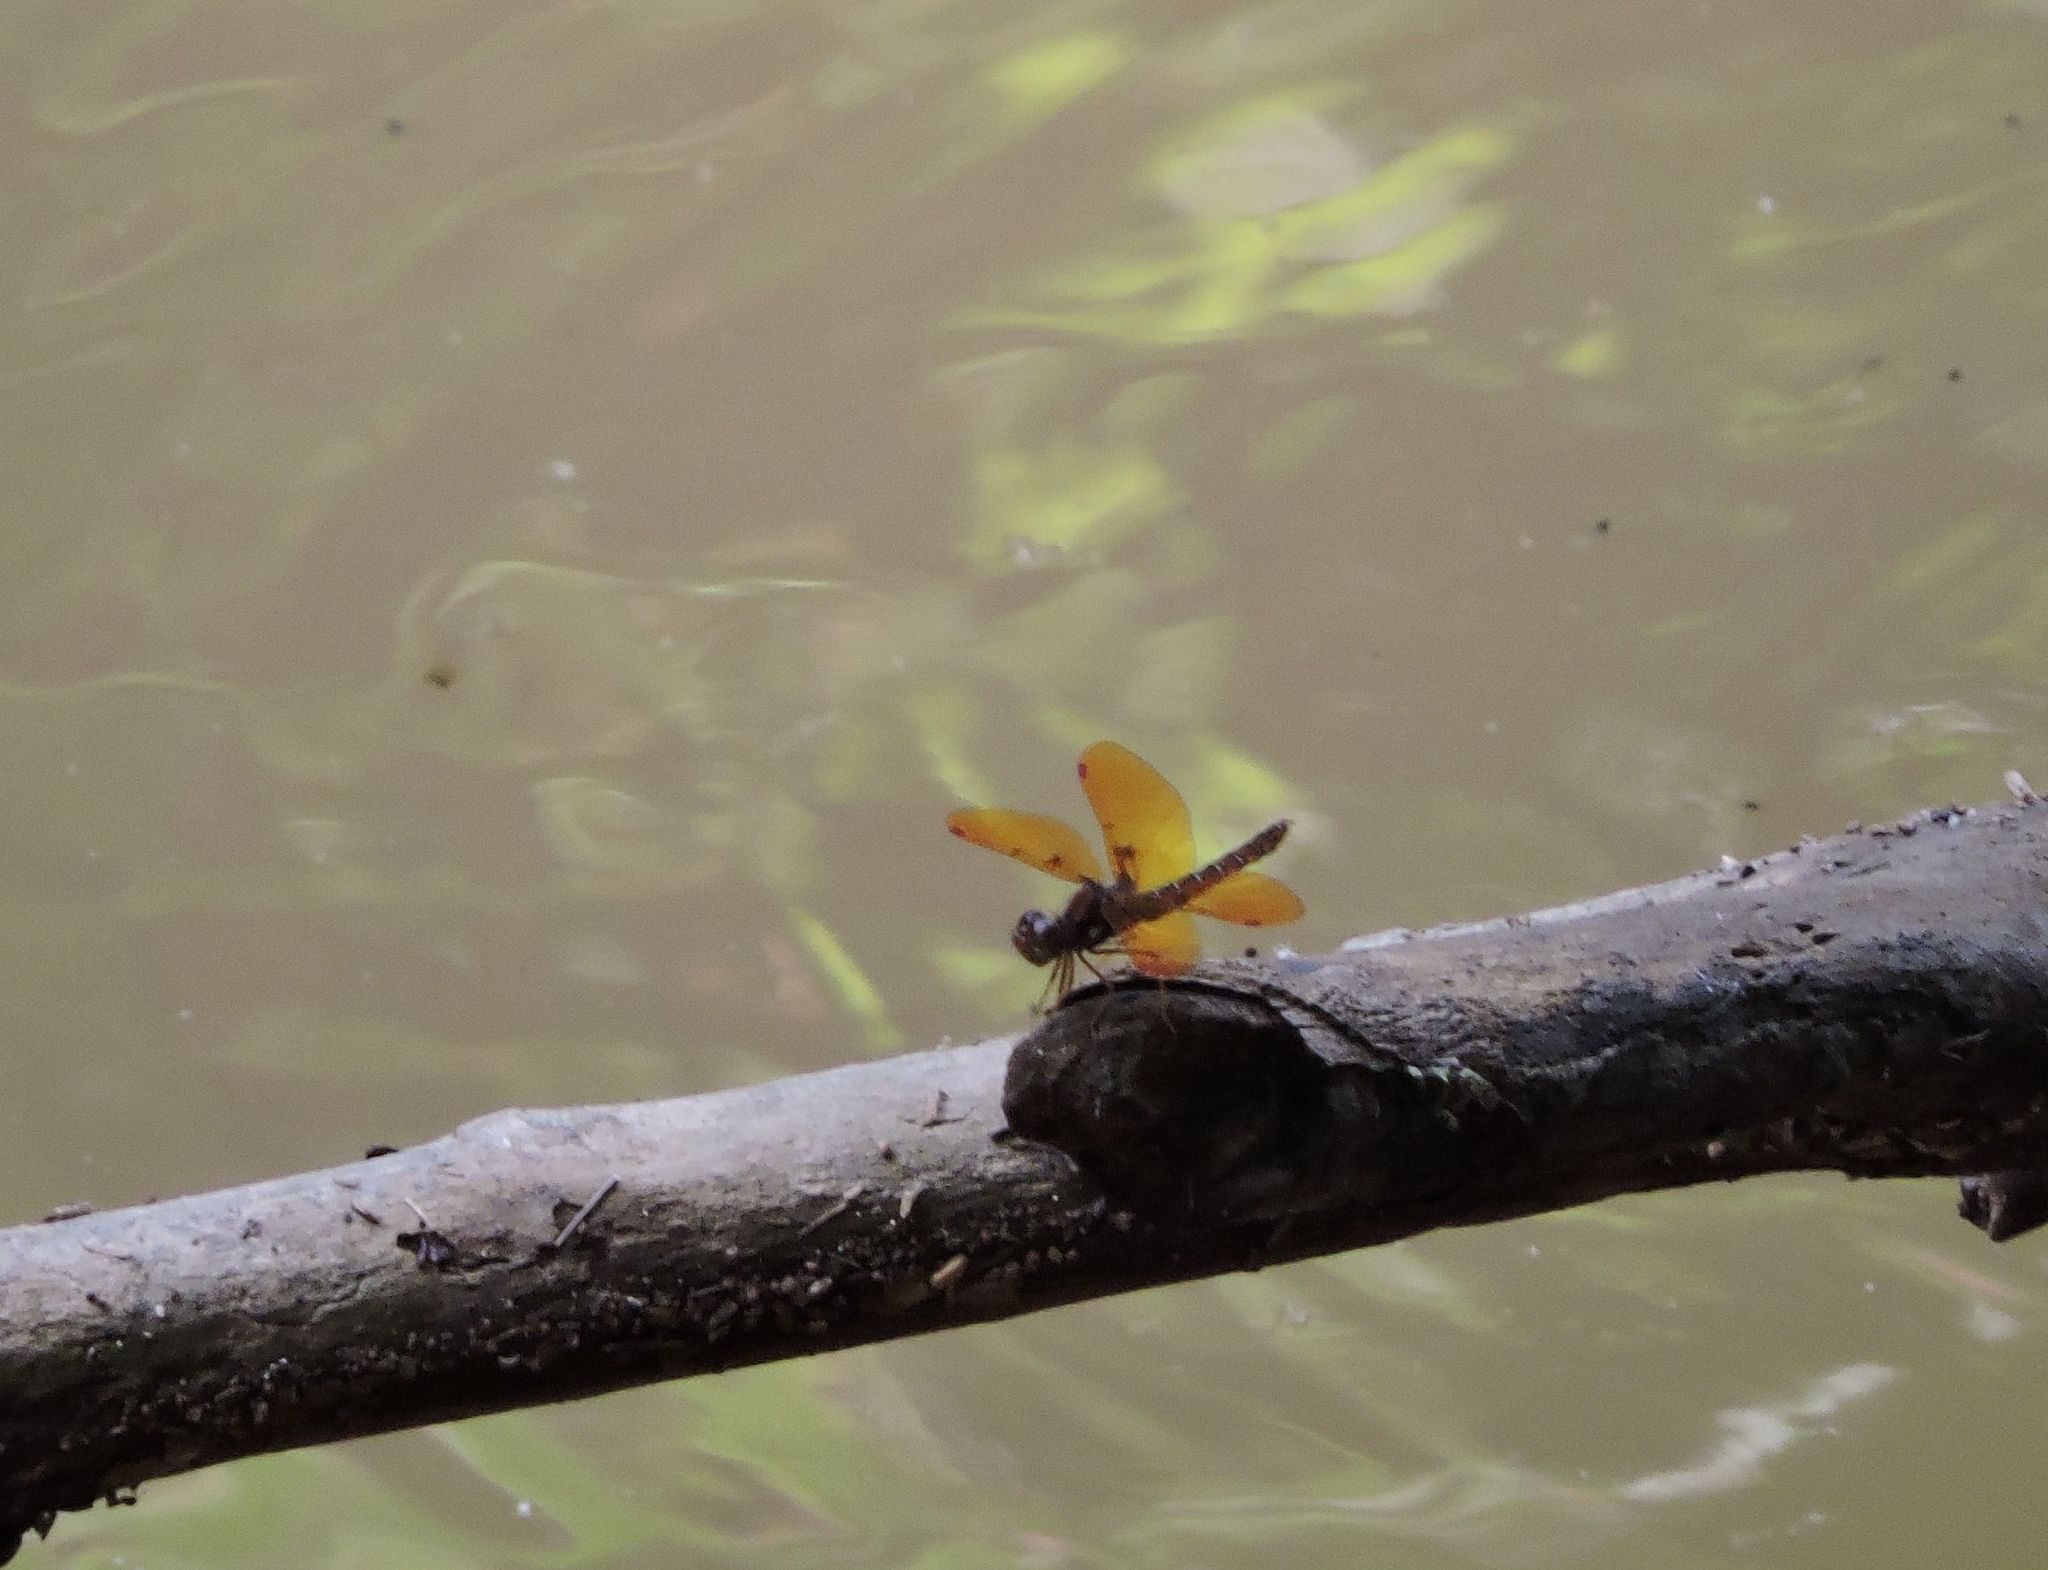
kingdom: Animalia
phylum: Arthropoda
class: Insecta
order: Odonata
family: Libellulidae
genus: Perithemis
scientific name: Perithemis tenera
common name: Eastern amberwing
